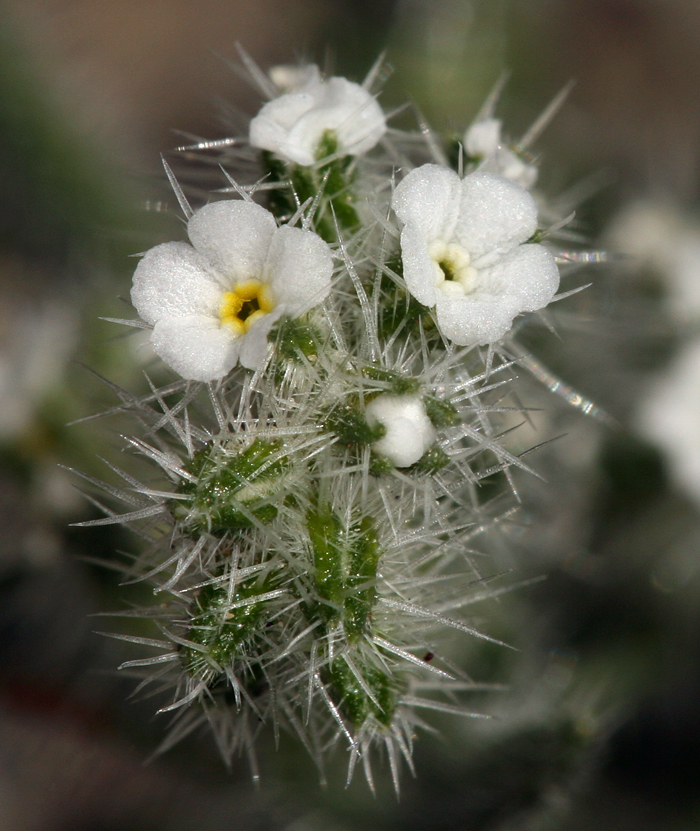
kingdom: Plantae
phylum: Tracheophyta
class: Magnoliopsida
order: Boraginales
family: Boraginaceae
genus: Johnstonella
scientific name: Johnstonella angustifolia
